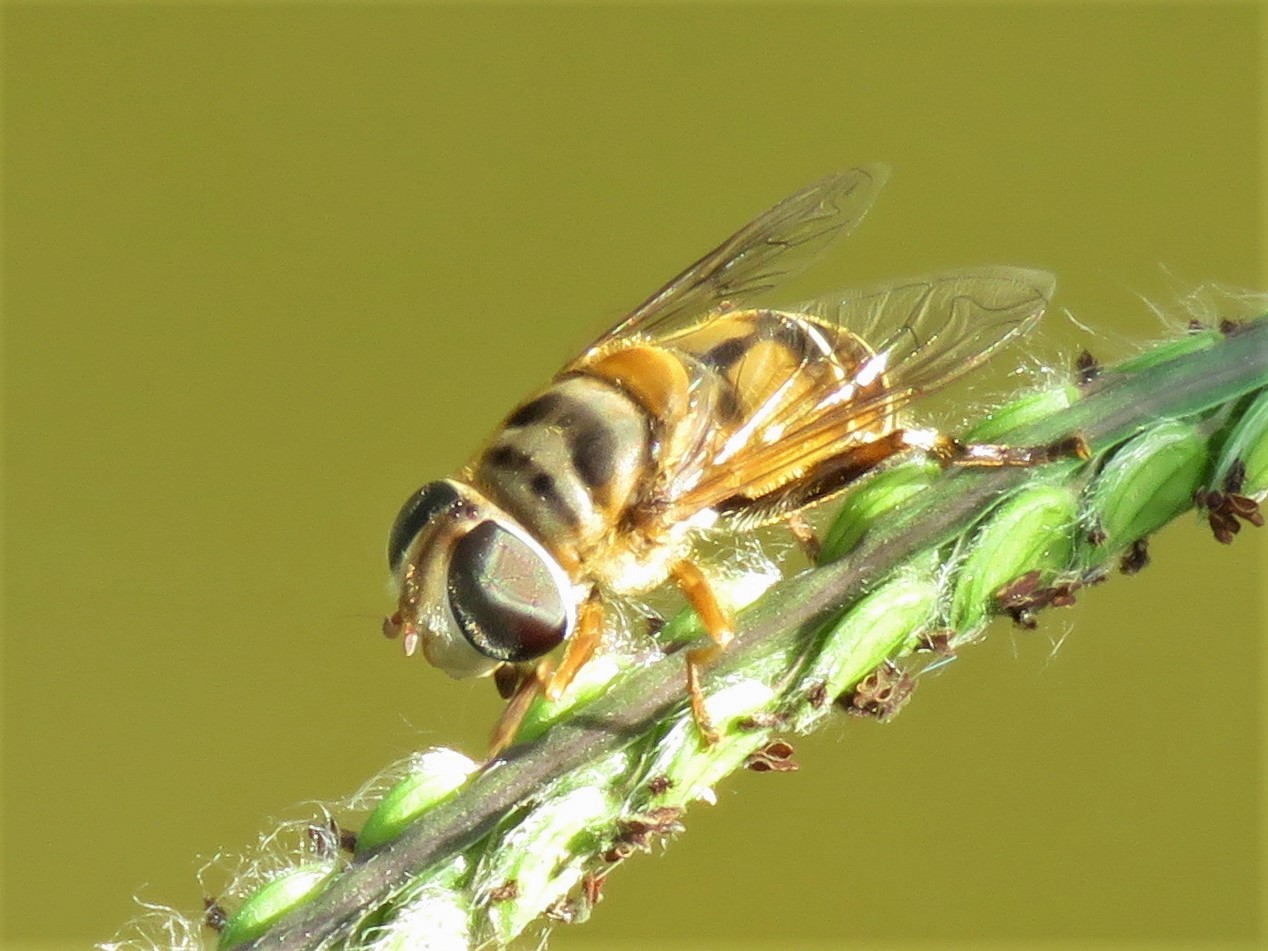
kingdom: Animalia
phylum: Arthropoda
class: Insecta
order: Diptera
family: Syrphidae
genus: Palpada
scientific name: Palpada vinetorum
